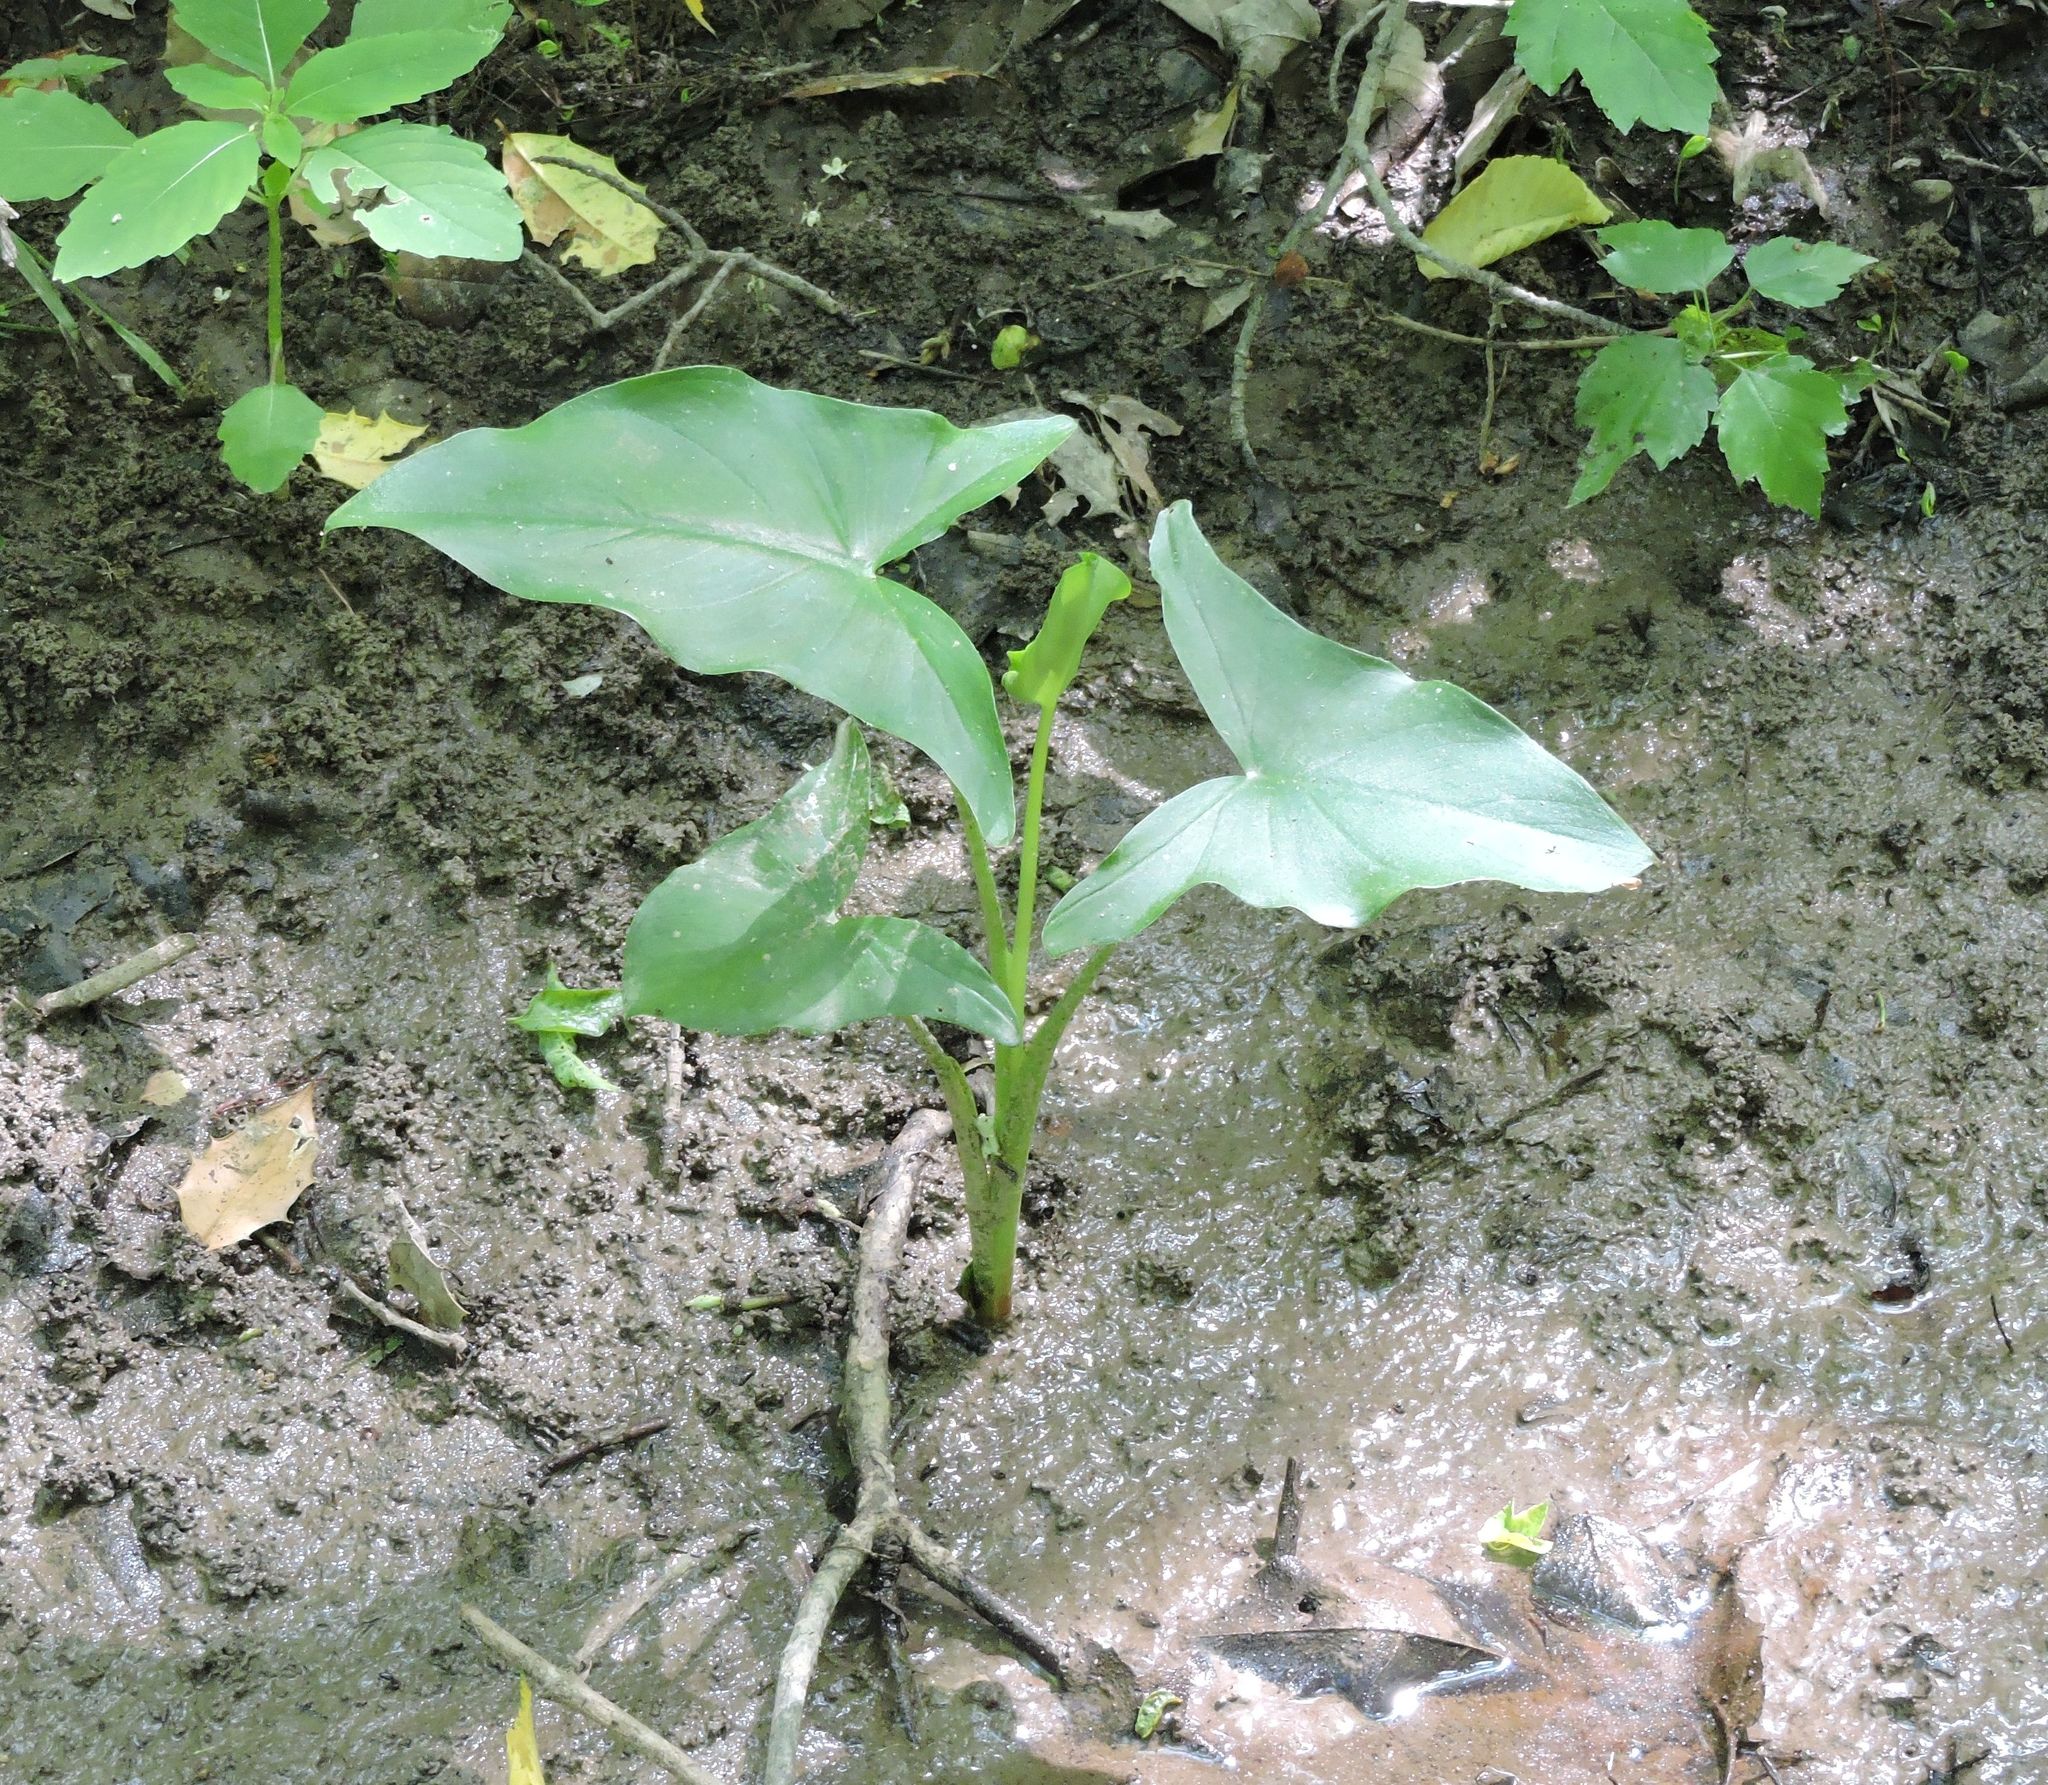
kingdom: Plantae
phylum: Tracheophyta
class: Liliopsida
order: Alismatales
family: Araceae
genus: Peltandra
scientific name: Peltandra virginica
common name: Arrow arum
